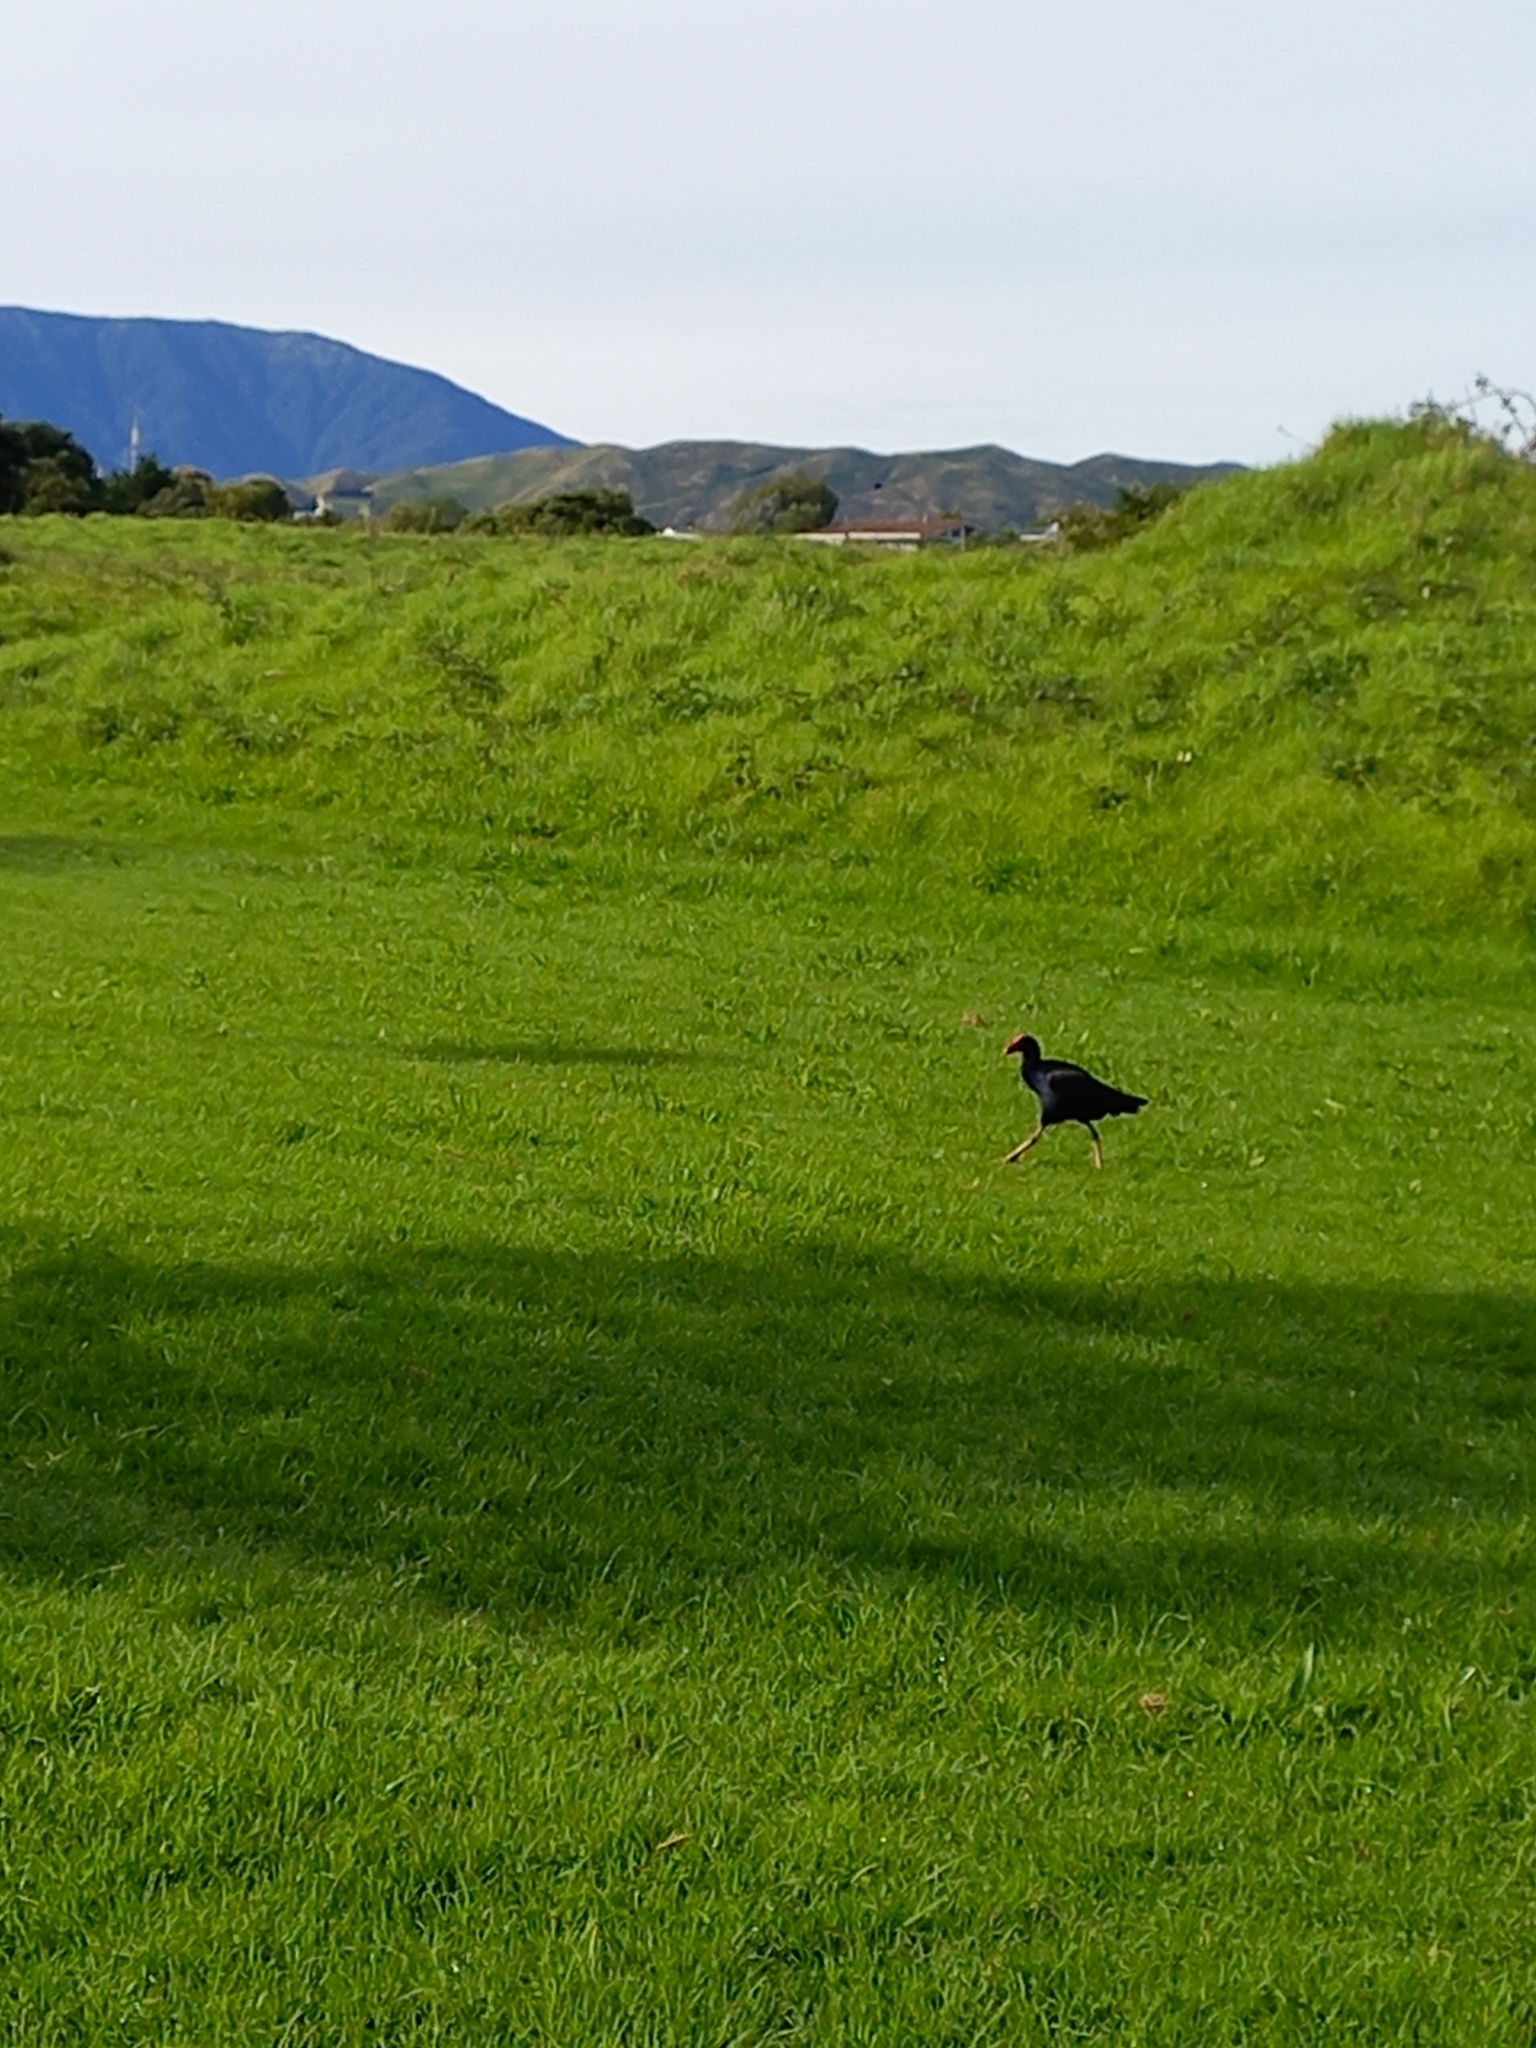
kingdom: Animalia
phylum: Chordata
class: Aves
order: Gruiformes
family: Rallidae
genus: Porphyrio
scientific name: Porphyrio melanotus
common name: Australasian swamphen
